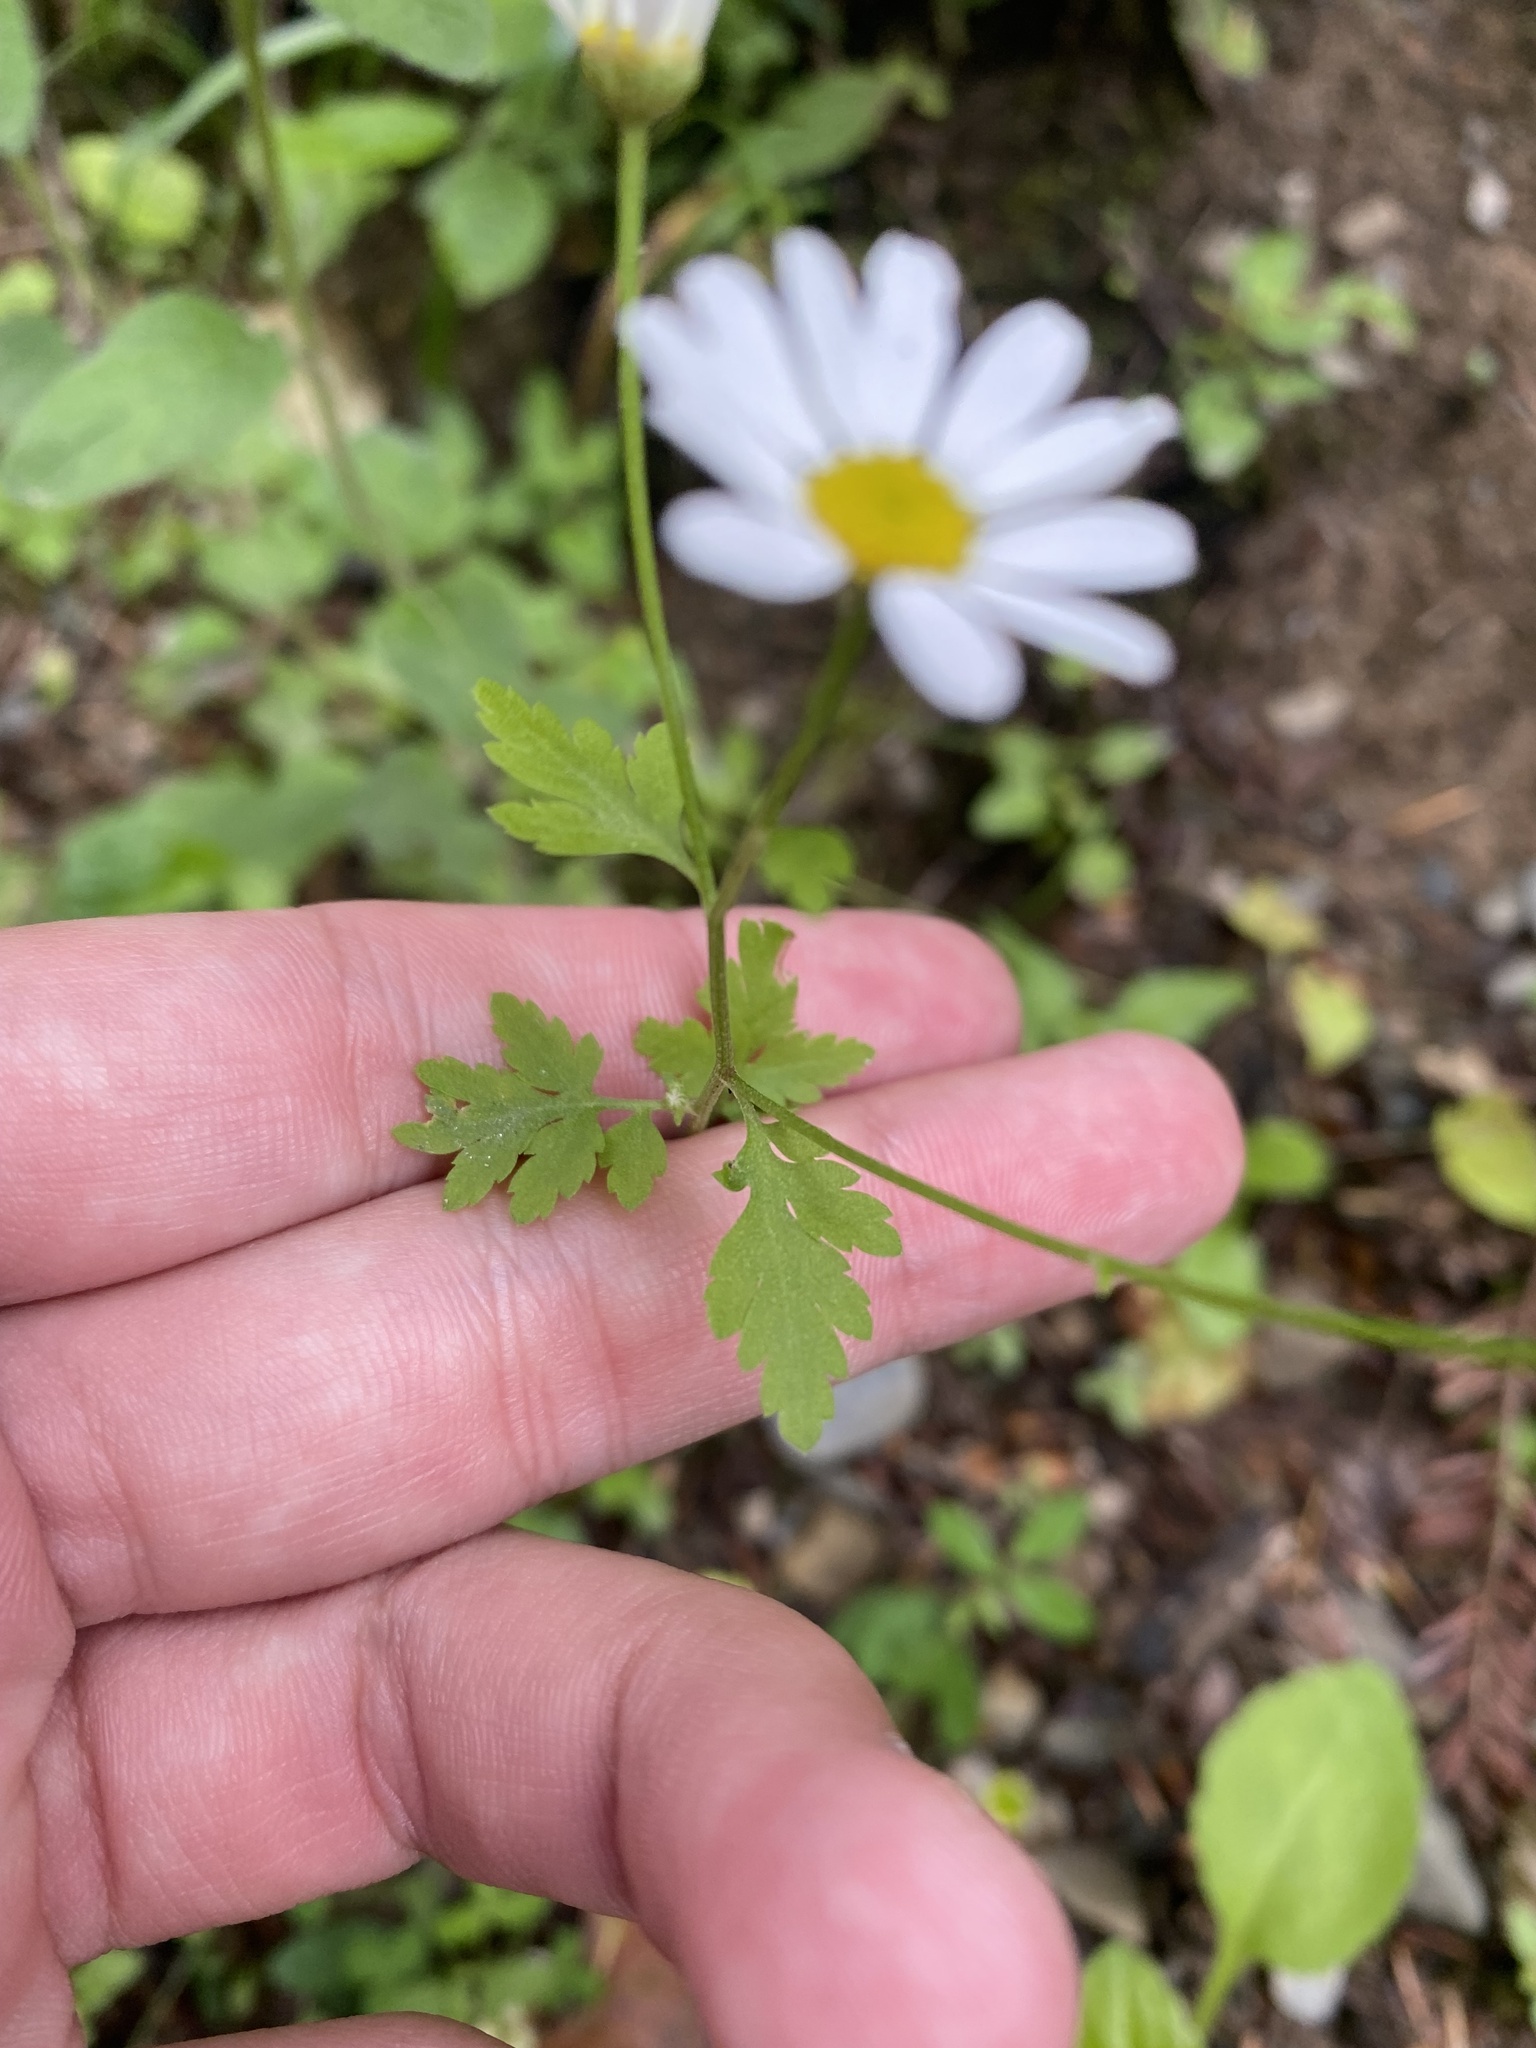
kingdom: Plantae
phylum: Tracheophyta
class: Magnoliopsida
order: Asterales
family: Asteraceae
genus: Tanacetum
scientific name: Tanacetum partheniifolium
